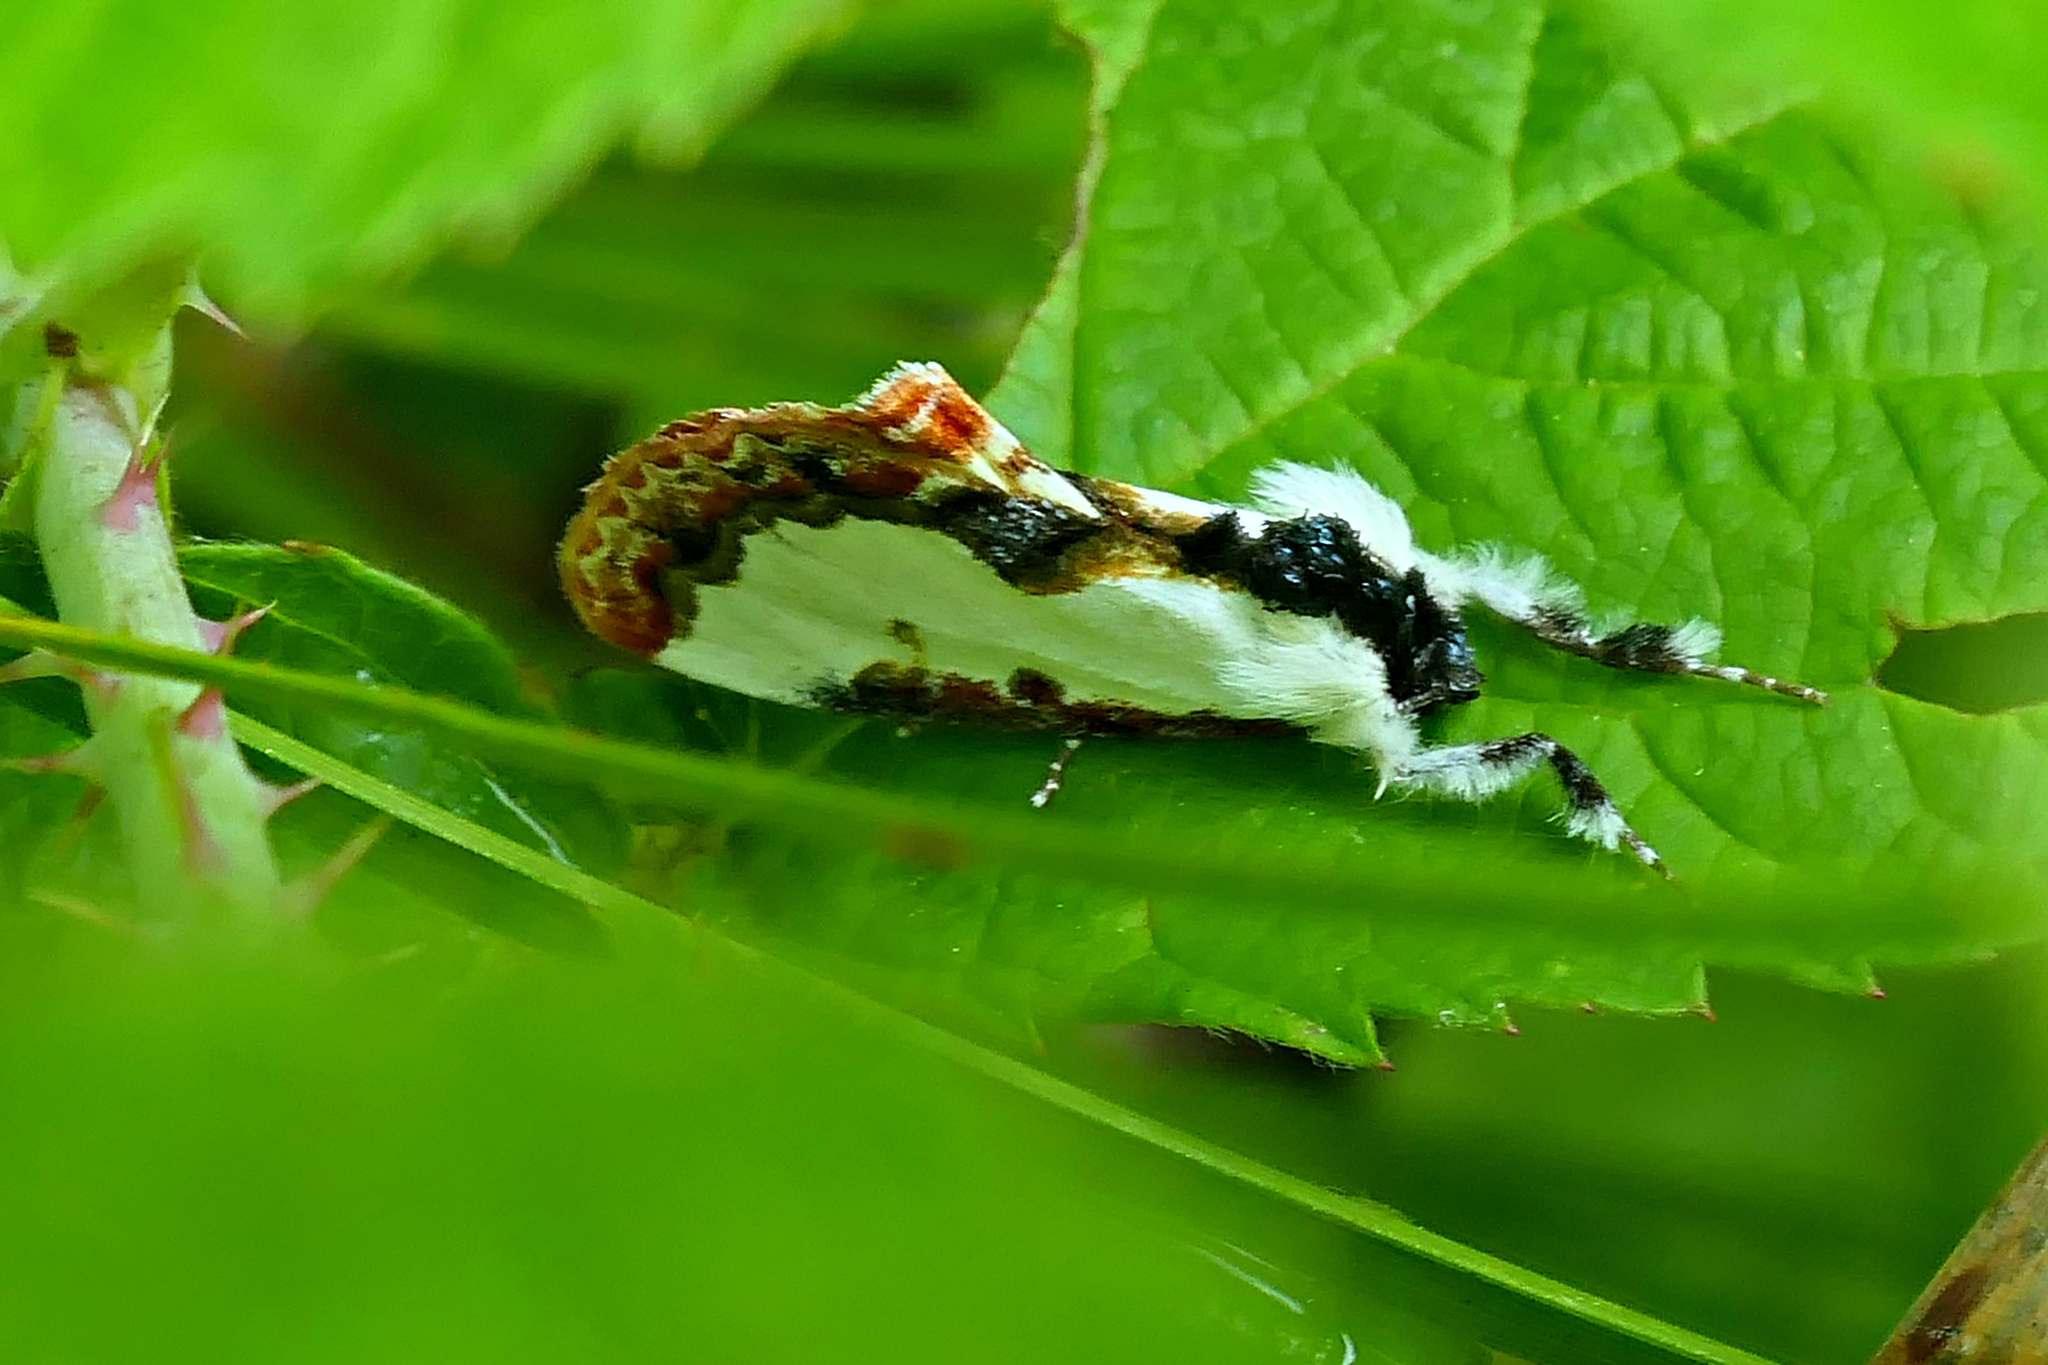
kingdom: Animalia
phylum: Arthropoda
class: Insecta
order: Lepidoptera
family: Noctuidae
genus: Eudryas
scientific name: Eudryas unio
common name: Pearly wood-nymph
